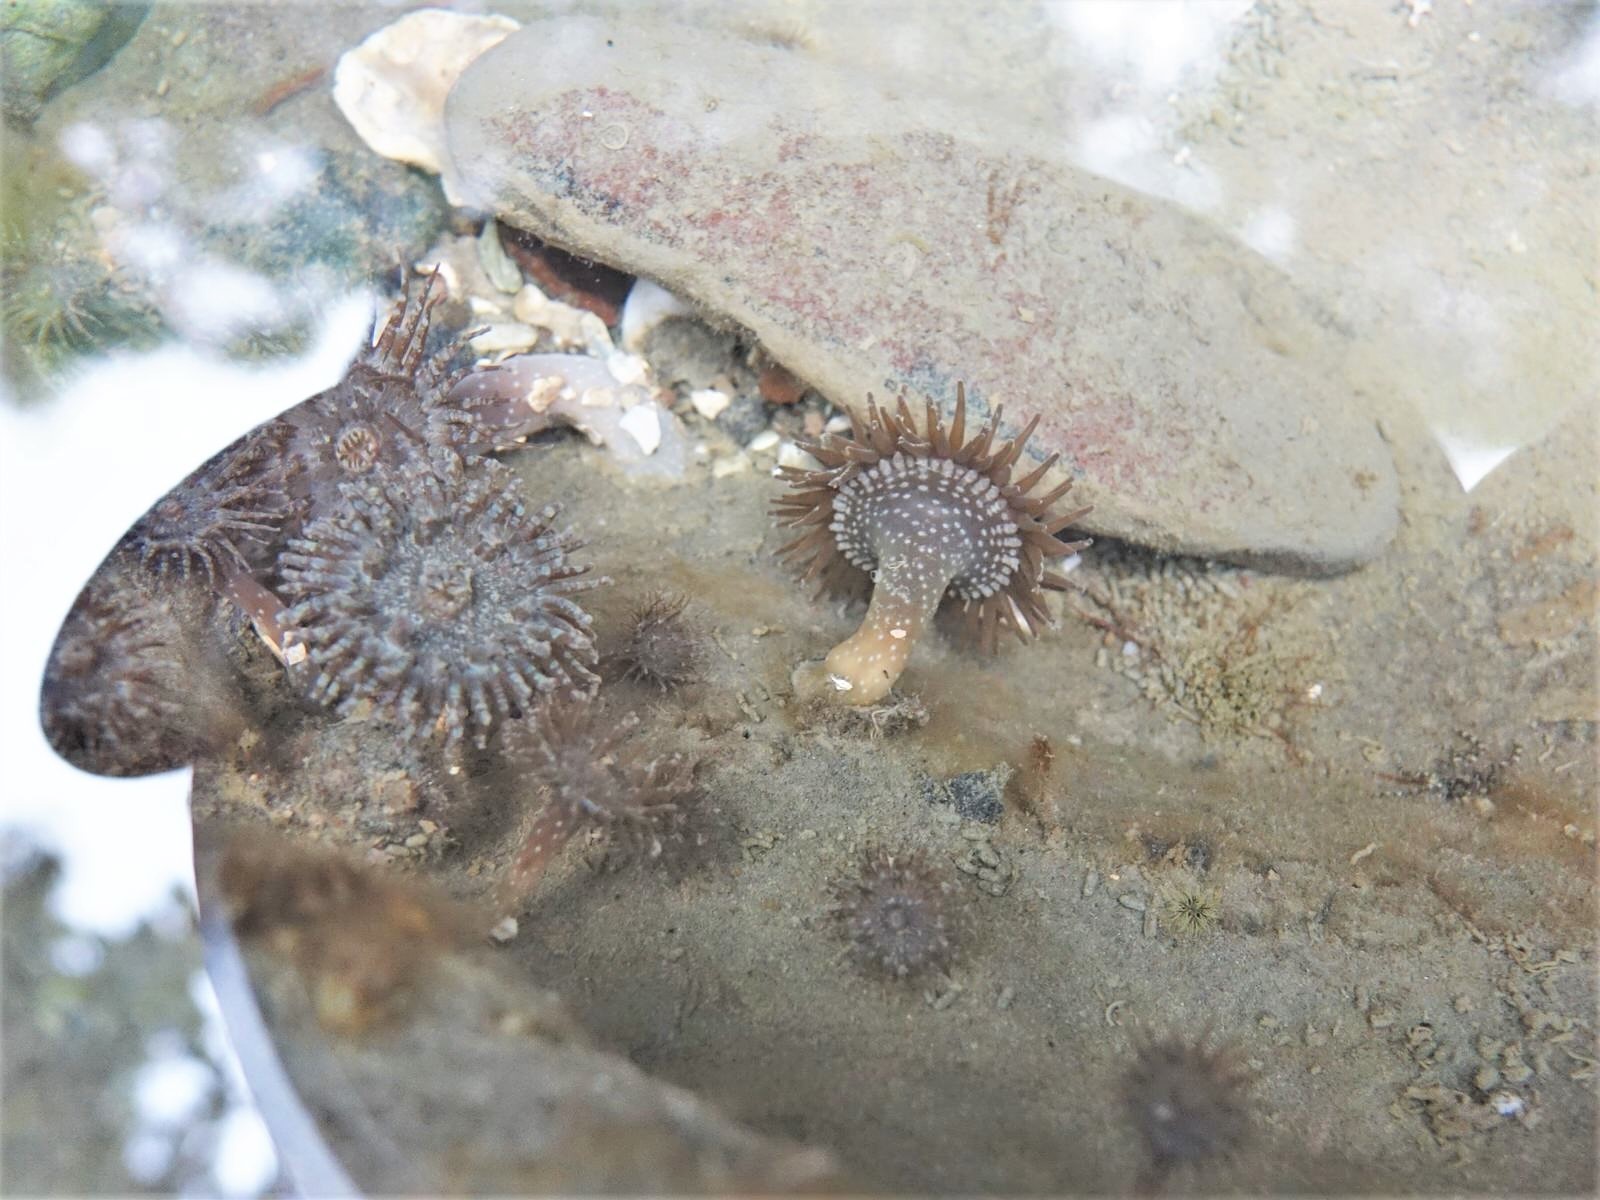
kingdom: Animalia
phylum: Cnidaria
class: Anthozoa
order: Actiniaria
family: Actiniidae
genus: Anthopleura
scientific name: Anthopleura hermaphroditica
